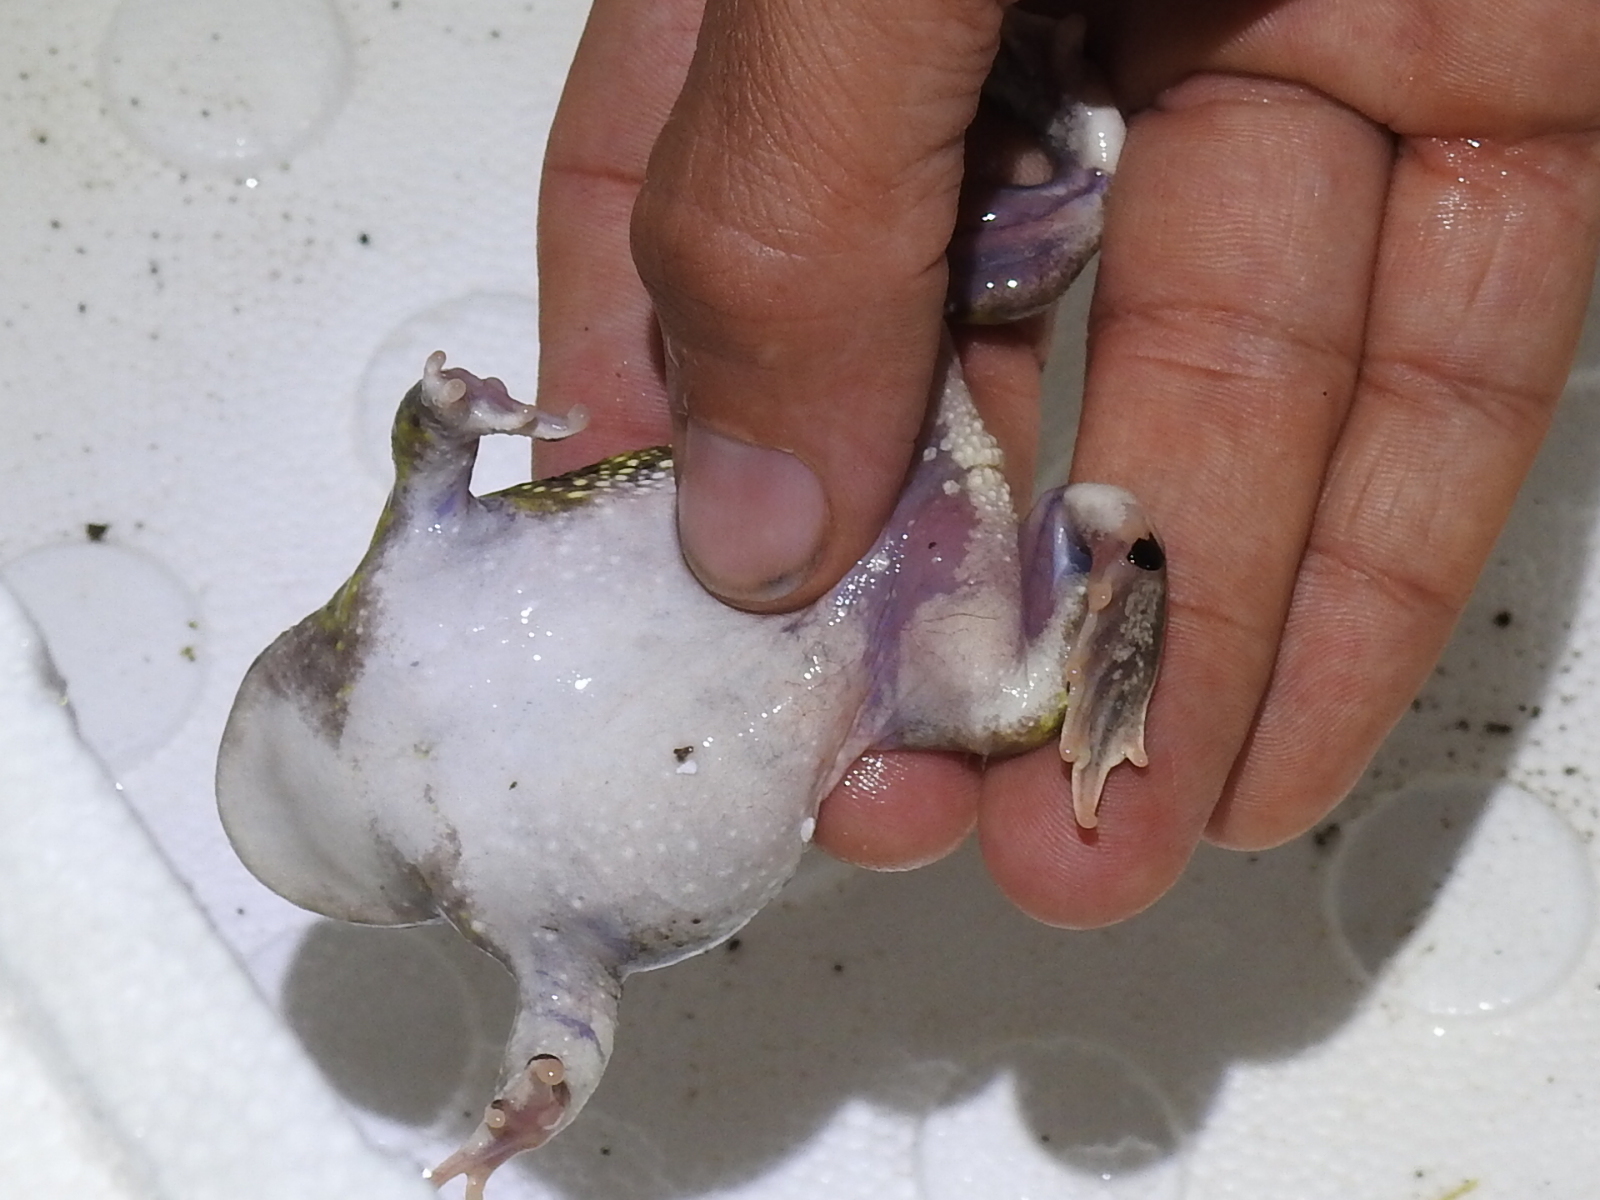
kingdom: Animalia
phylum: Chordata
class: Amphibia
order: Anura
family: Scaphiopodidae
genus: Scaphiopus
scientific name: Scaphiopus couchii
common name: Couch's spadefoot toad
